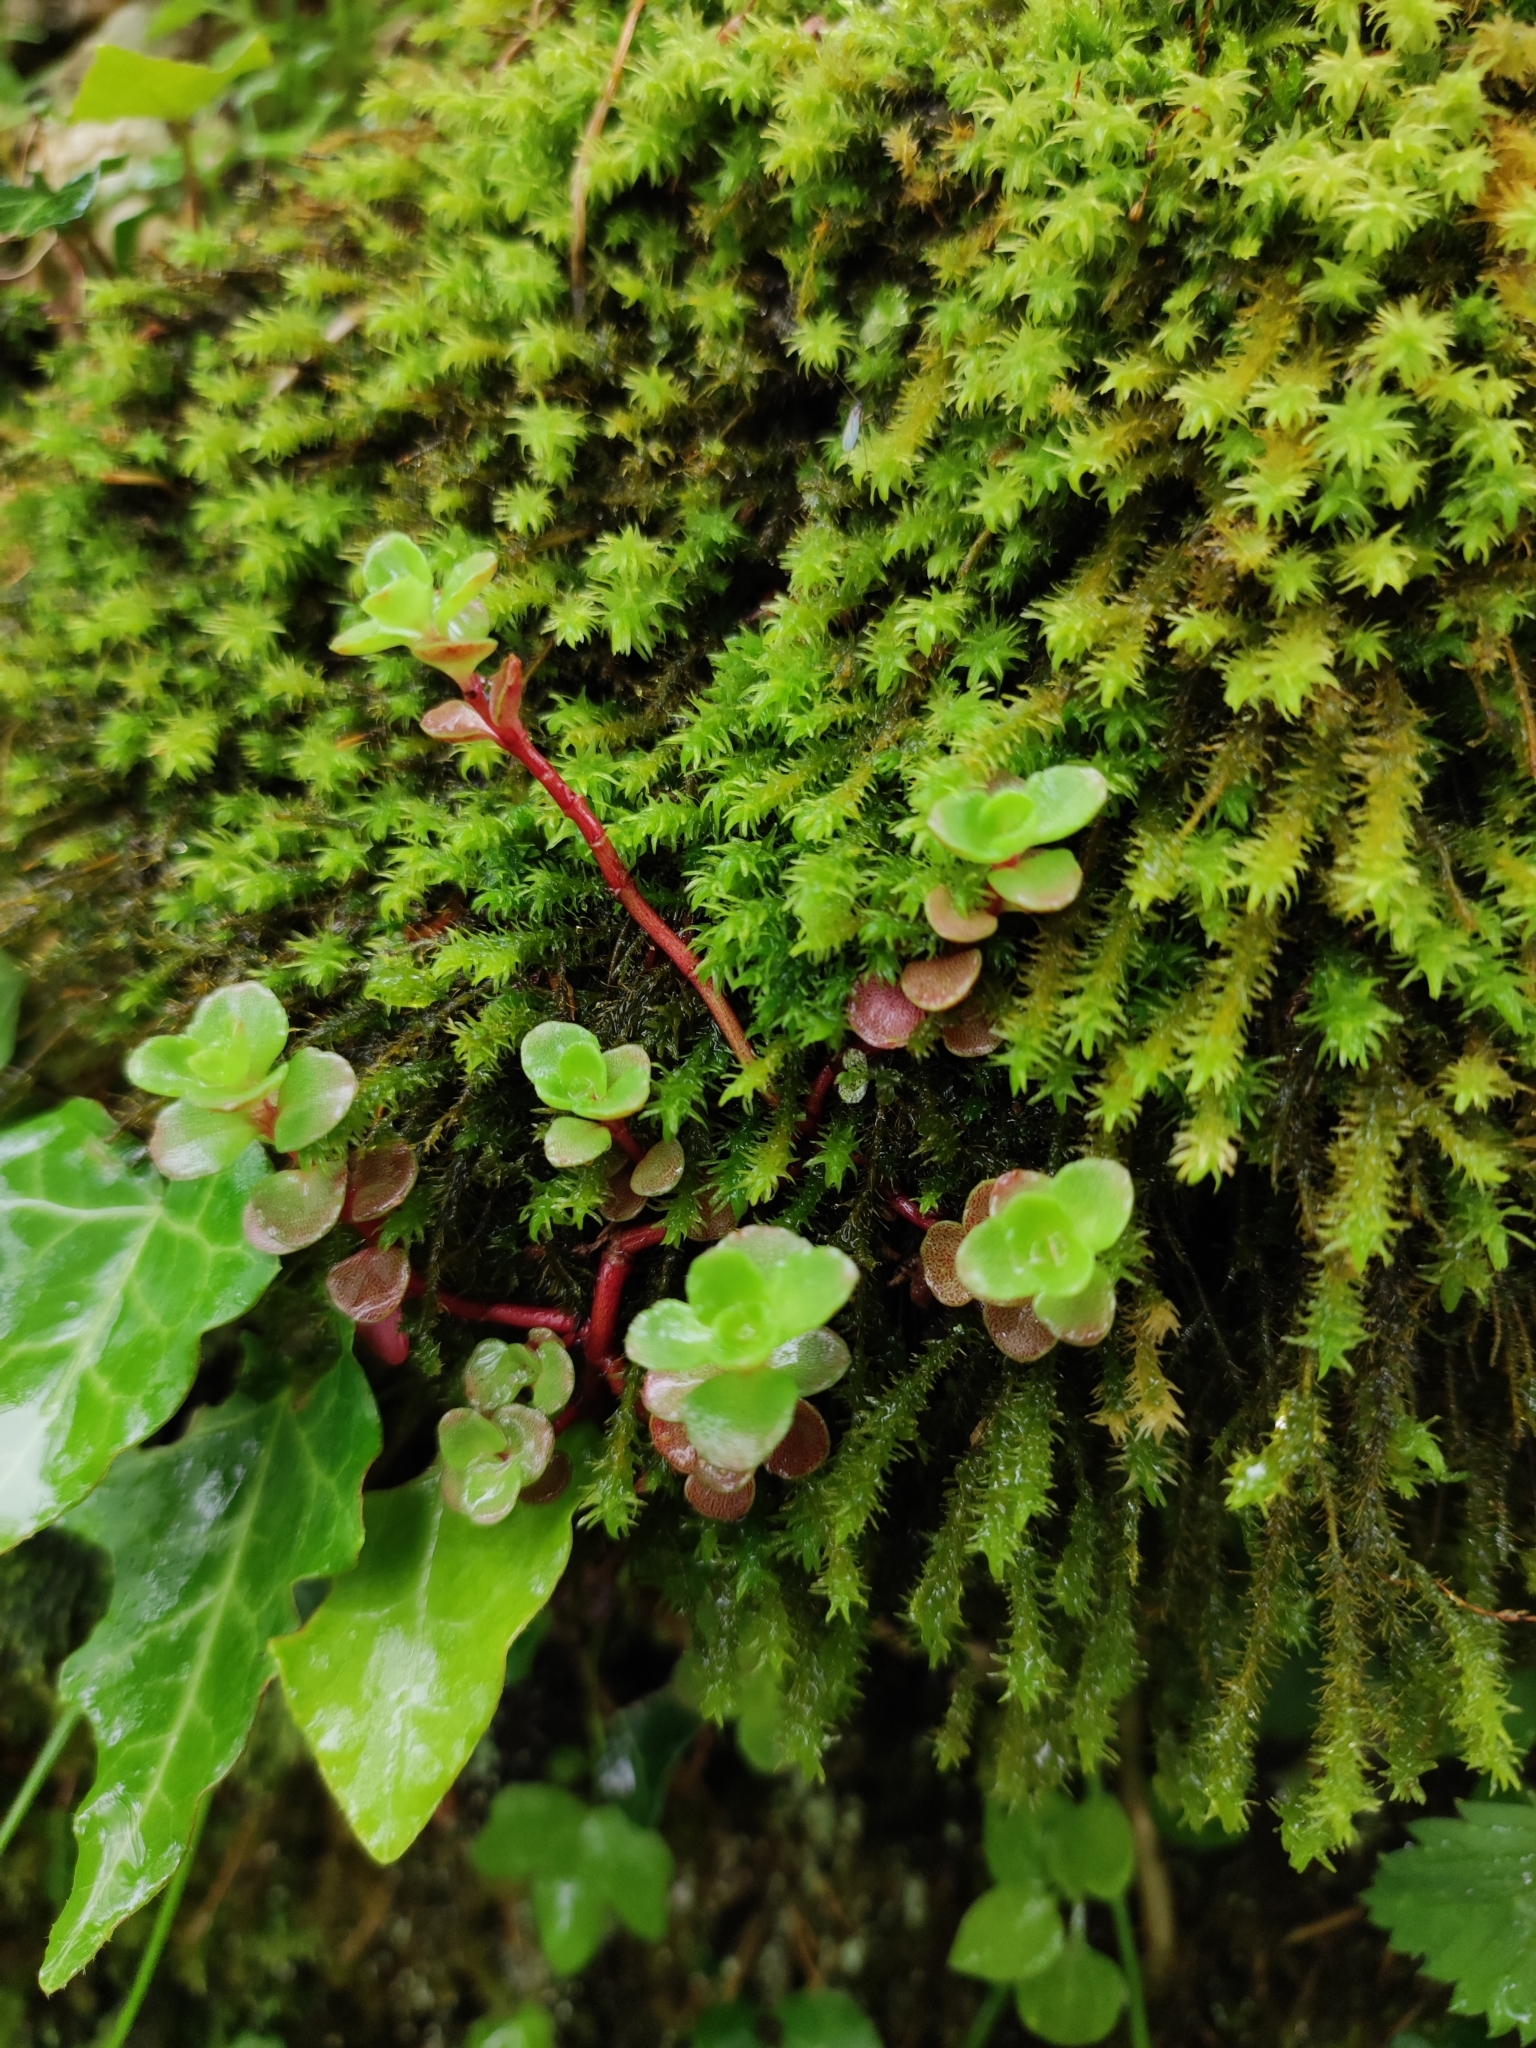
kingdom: Plantae
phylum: Tracheophyta
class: Magnoliopsida
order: Saxifragales
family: Crassulaceae
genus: Phedimus
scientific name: Phedimus spurius
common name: Caucasian stonecrop
